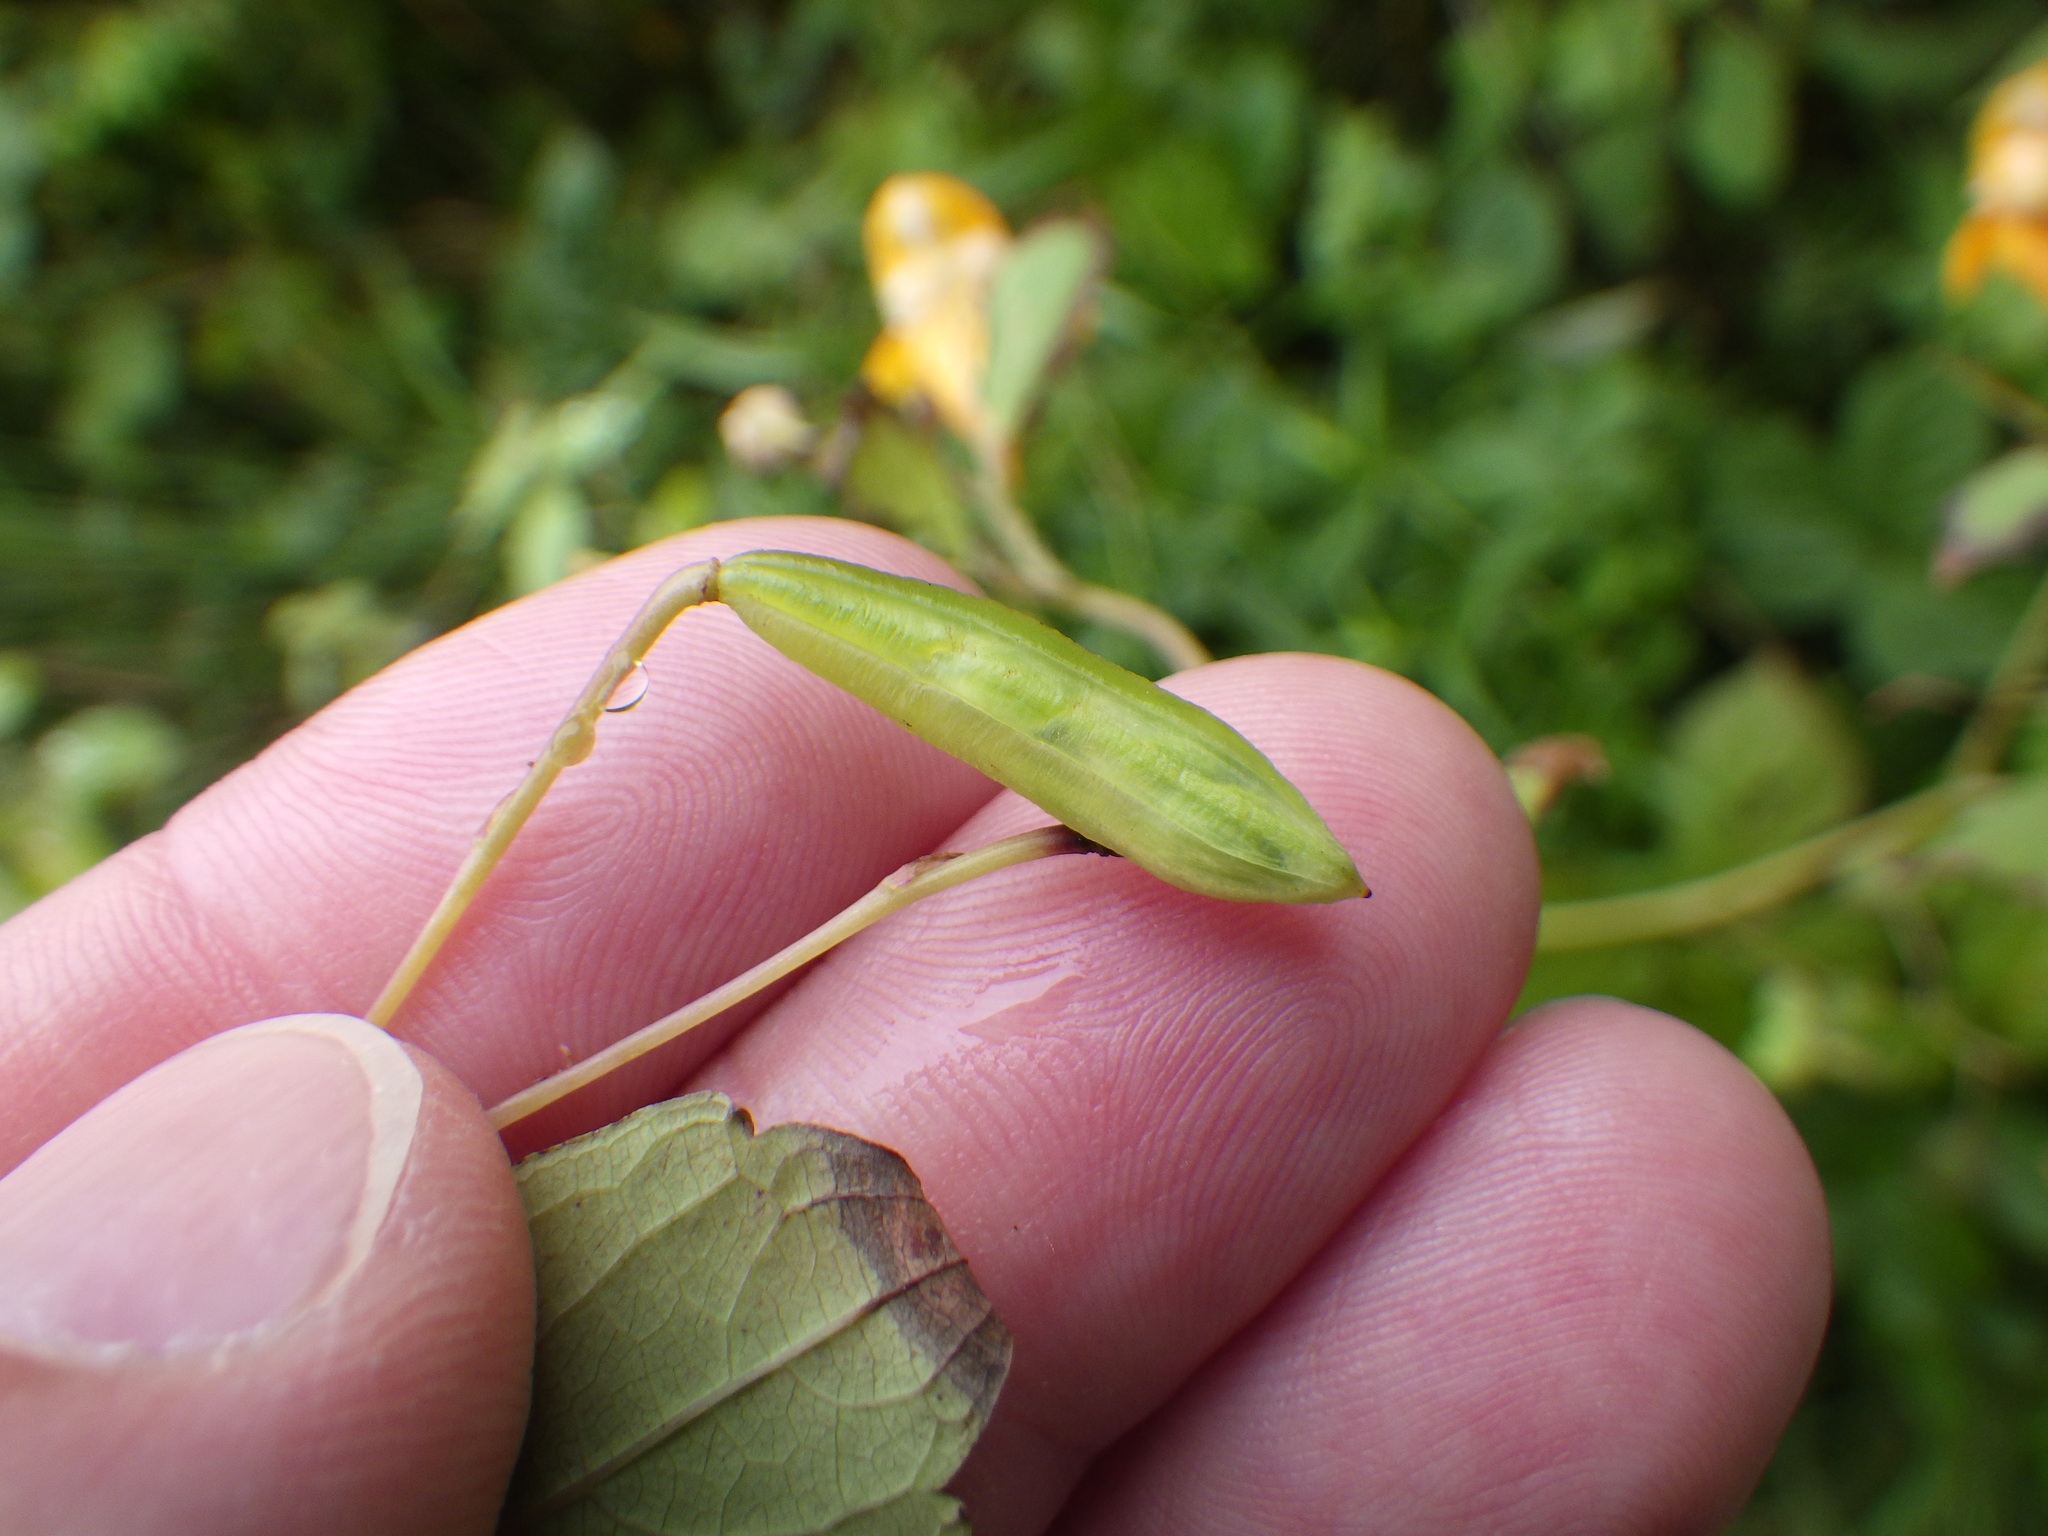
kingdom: Plantae
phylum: Tracheophyta
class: Magnoliopsida
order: Ericales
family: Balsaminaceae
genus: Impatiens
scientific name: Impatiens capensis
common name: Orange balsam
